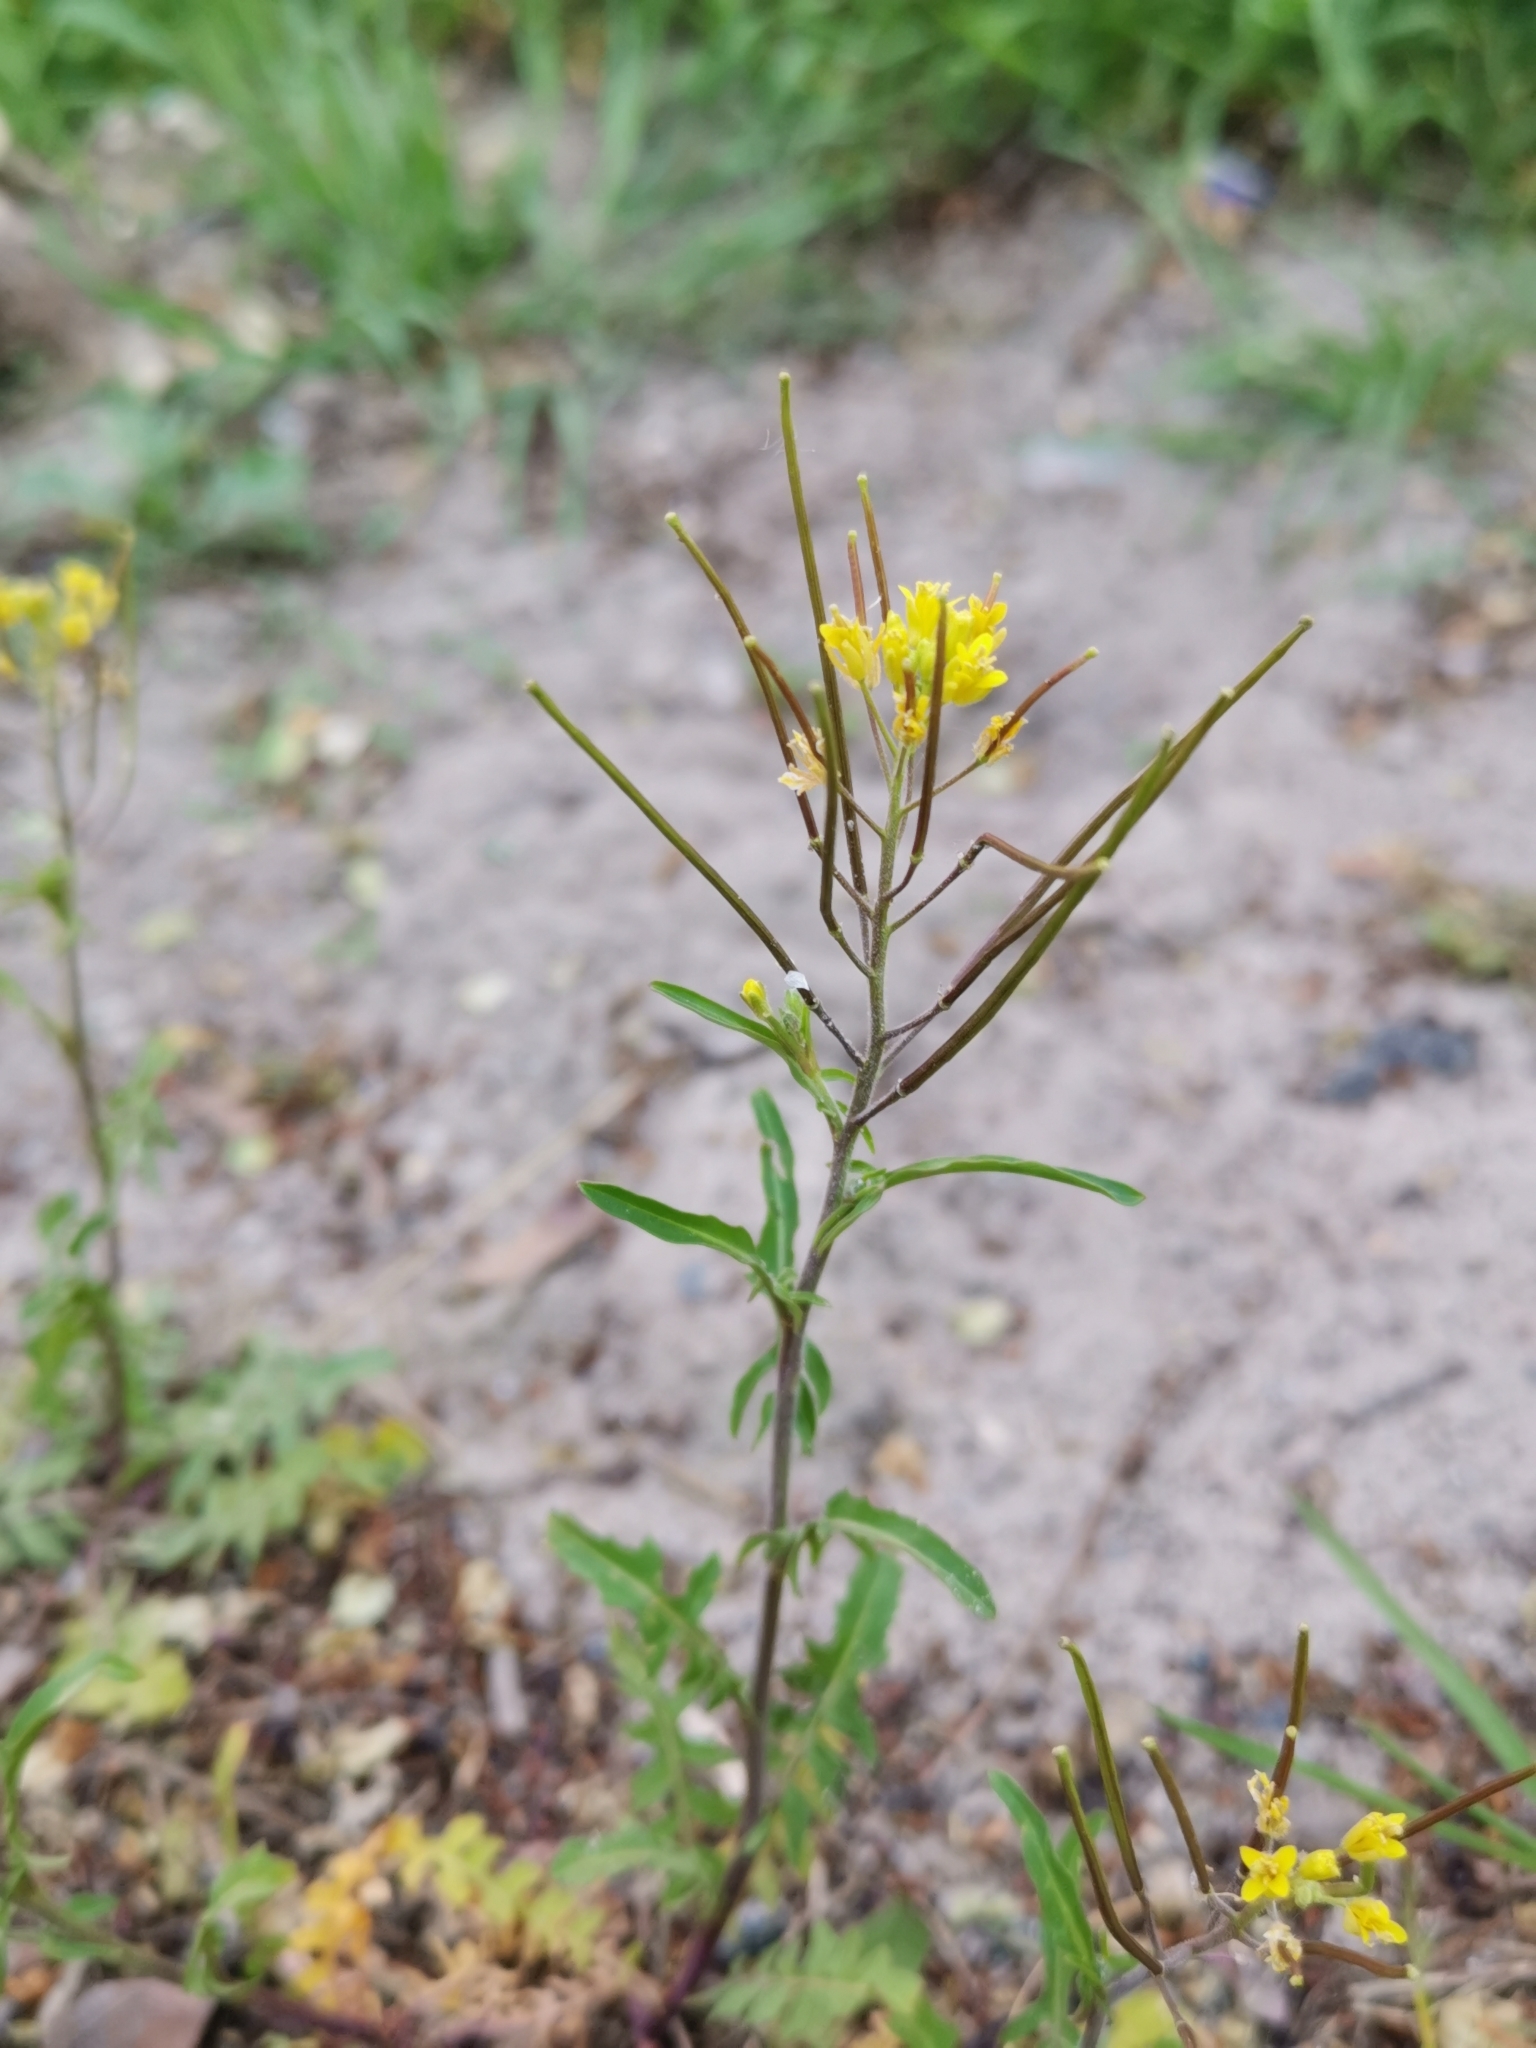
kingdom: Plantae
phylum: Tracheophyta
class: Magnoliopsida
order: Brassicales
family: Brassicaceae
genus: Sisymbrium
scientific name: Sisymbrium irio
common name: London rocket
